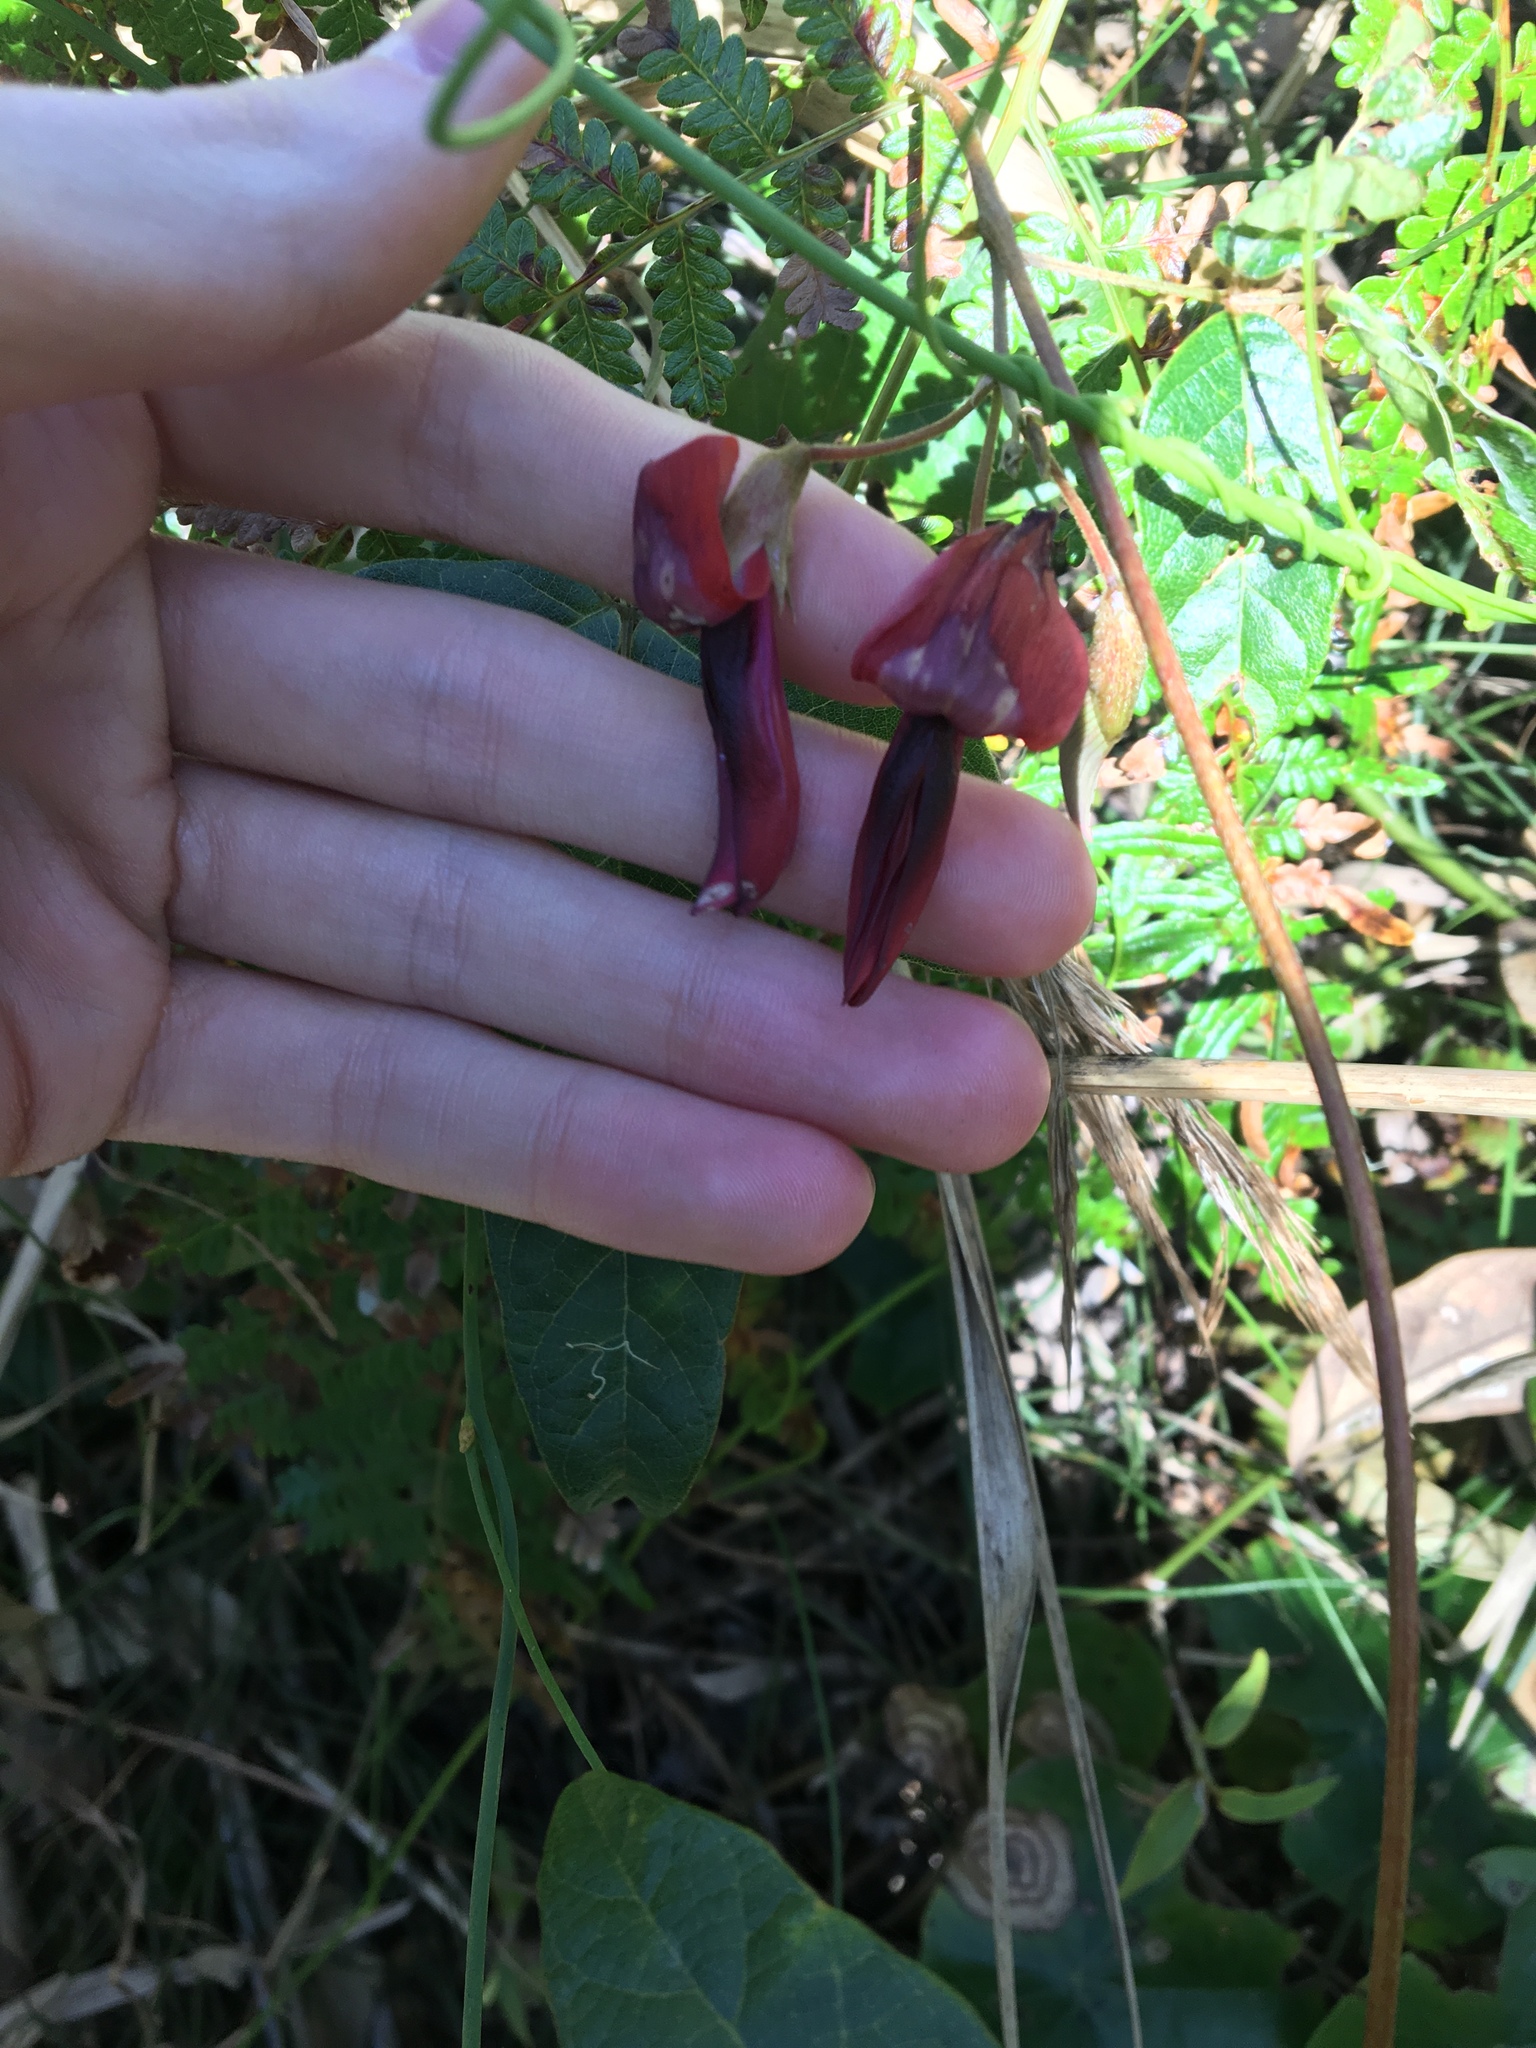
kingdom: Plantae
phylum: Tracheophyta
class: Magnoliopsida
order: Fabales
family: Fabaceae
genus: Kennedia
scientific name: Kennedia rubicunda
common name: Red kennedy-pea
